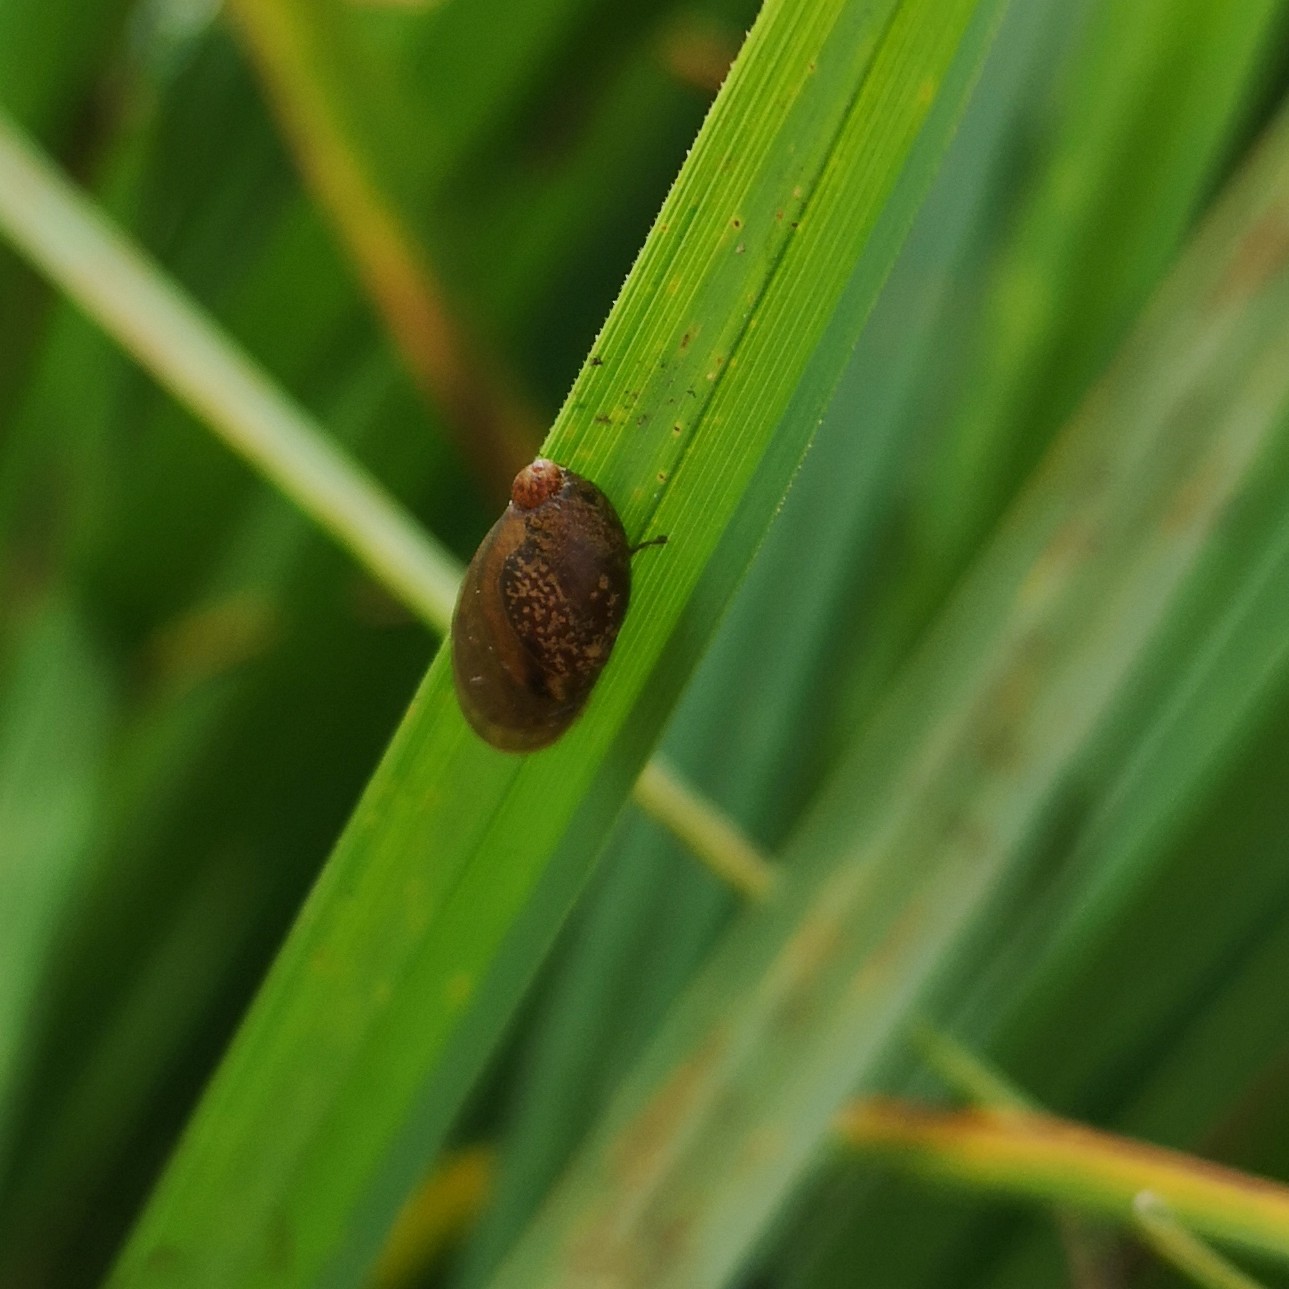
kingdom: Animalia
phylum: Mollusca
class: Gastropoda
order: Stylommatophora
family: Succineidae
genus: Succinea
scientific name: Succinea putris
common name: European ambersnail
